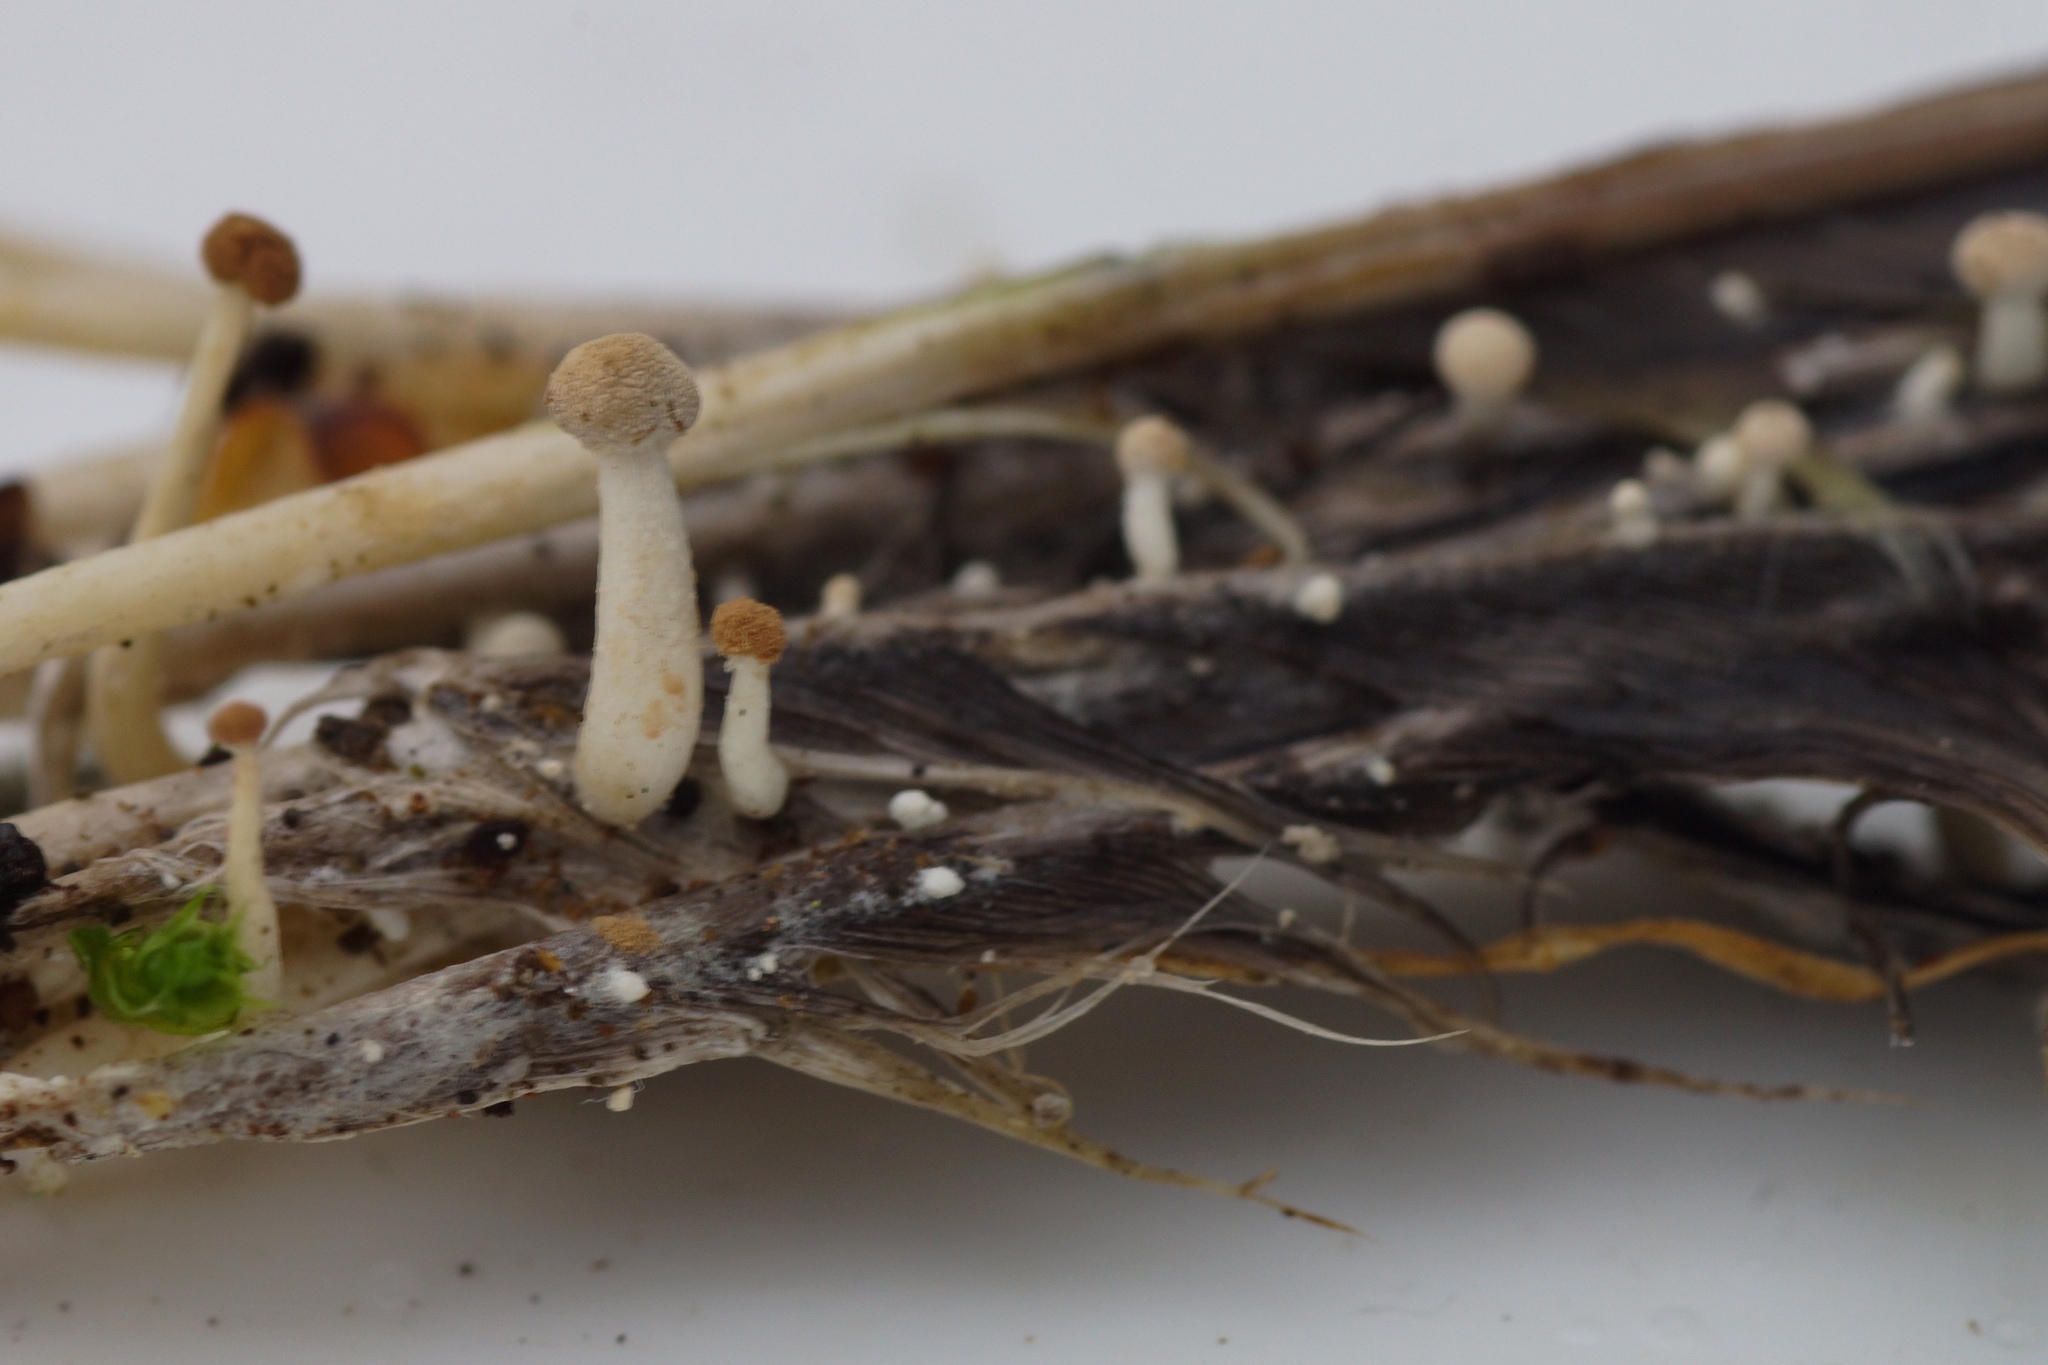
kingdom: Fungi
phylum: Ascomycota
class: Eurotiomycetes
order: Onygenales
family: Onygenaceae
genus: Onygena
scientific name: Onygena corvina
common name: Feather stalkball
